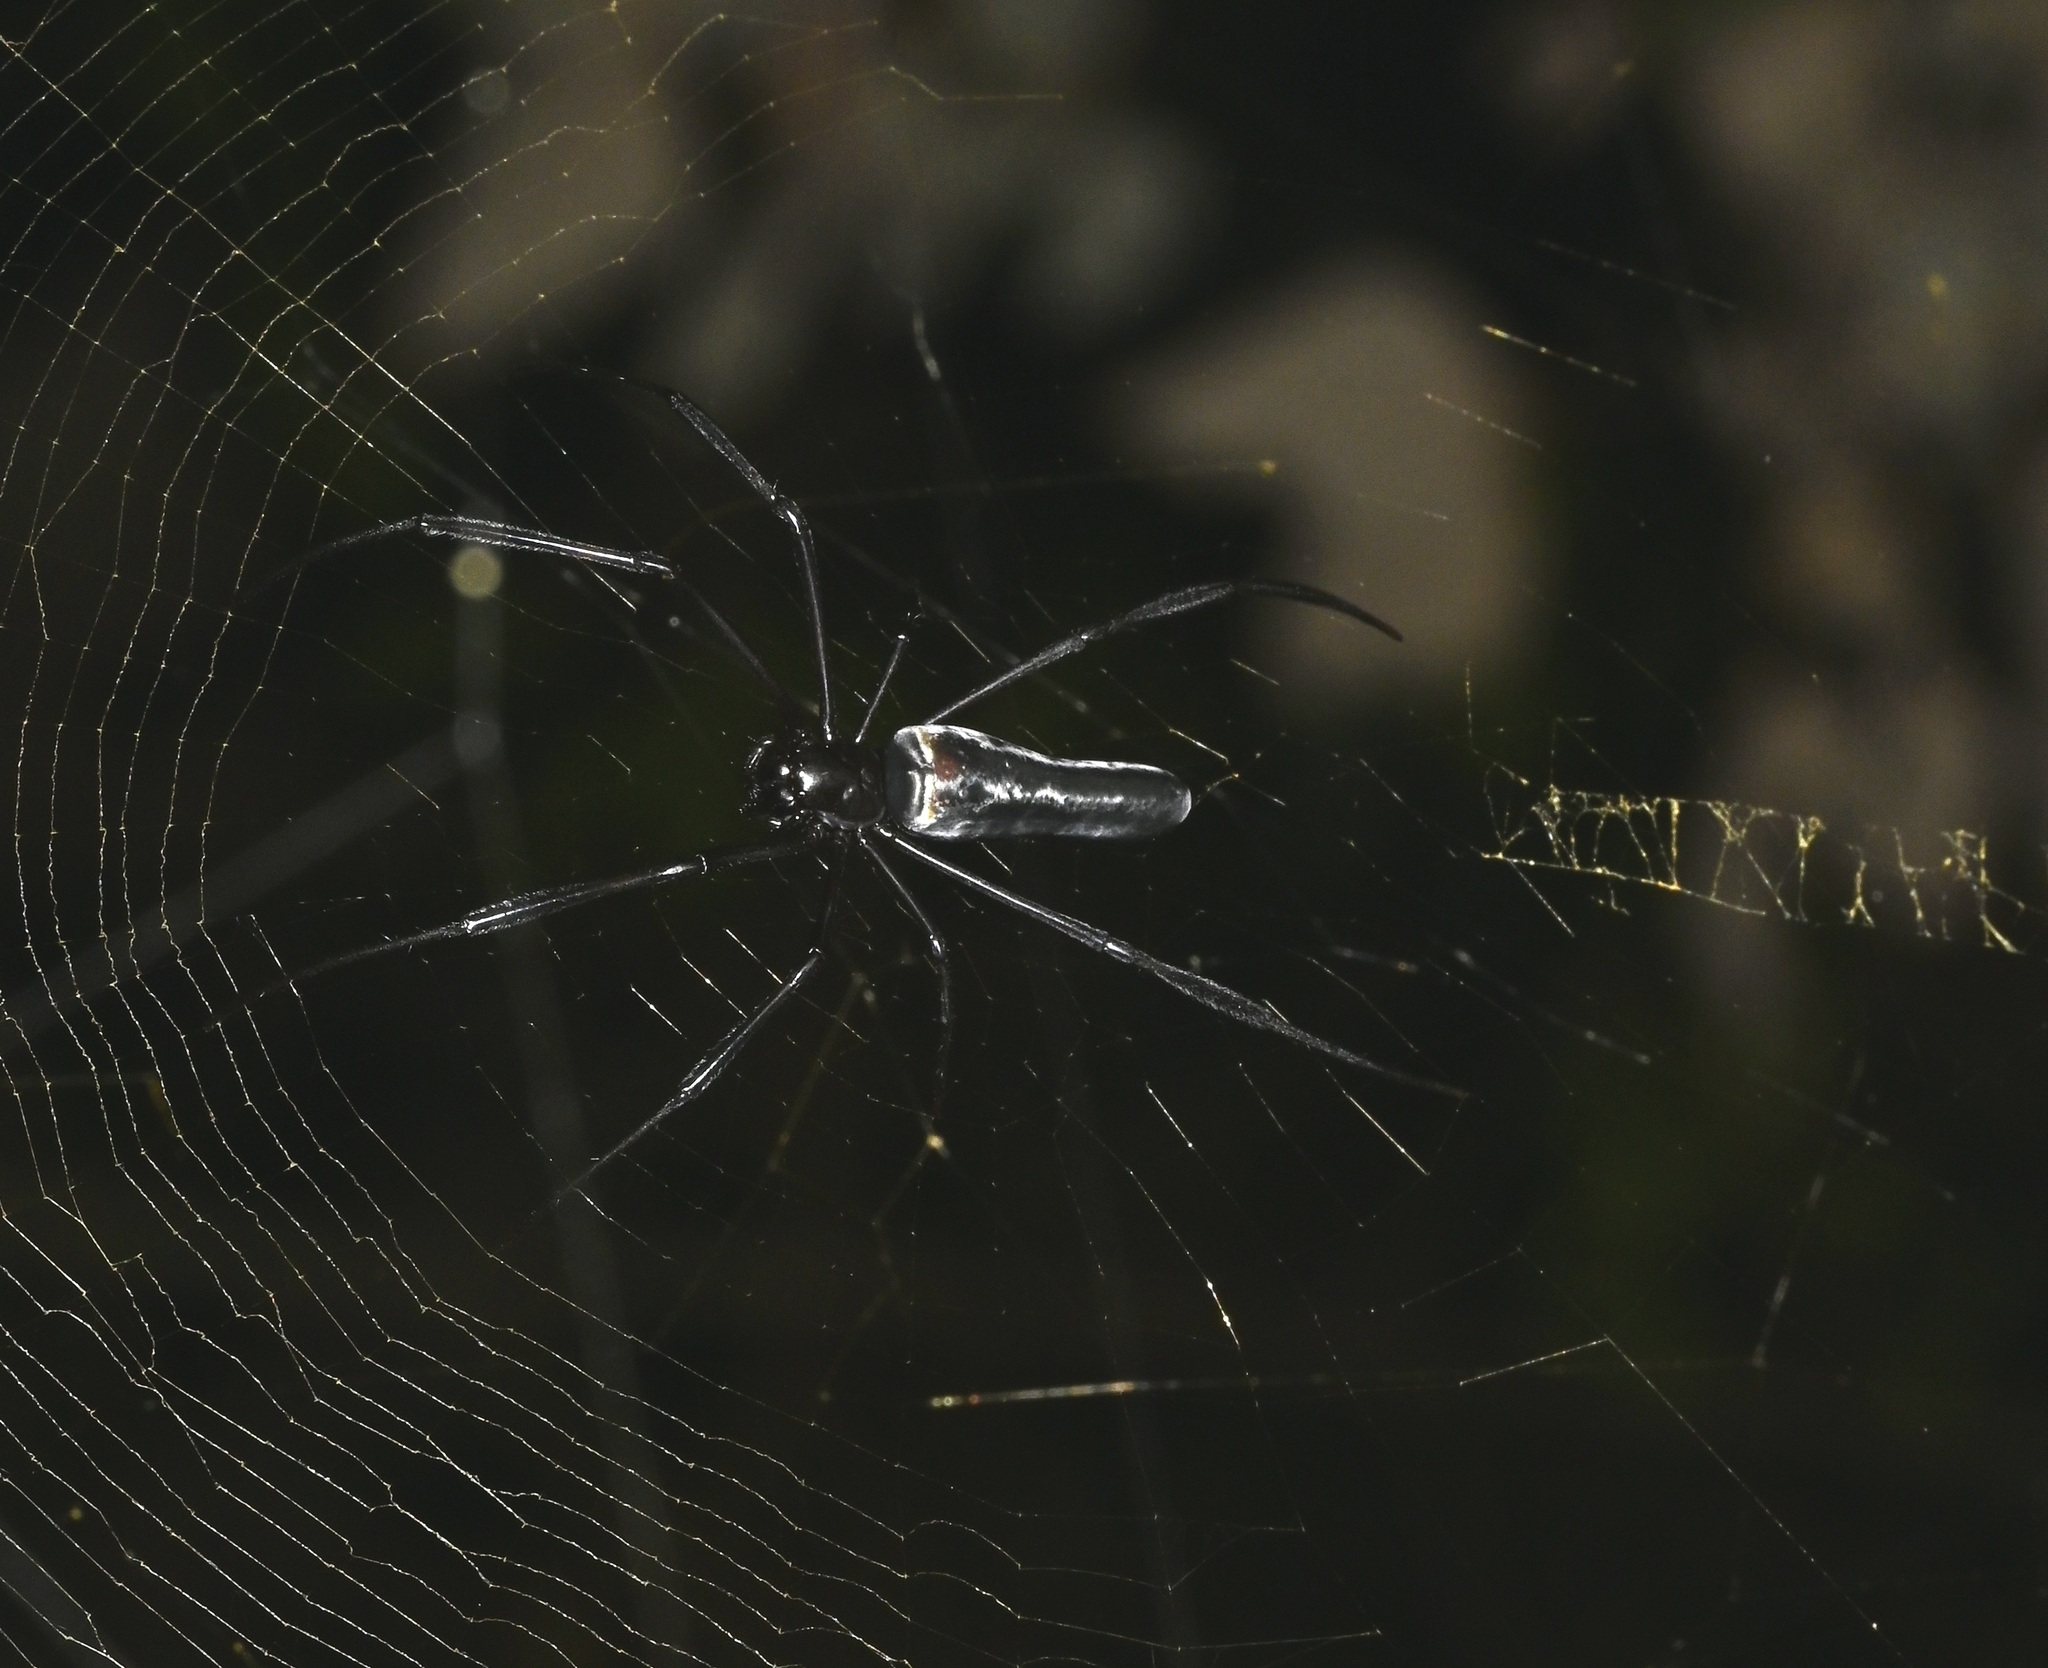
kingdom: Animalia
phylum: Arthropoda
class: Arachnida
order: Araneae
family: Araneidae
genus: Nephila
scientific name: Nephila pilipes
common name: Giant golden orb weaver
